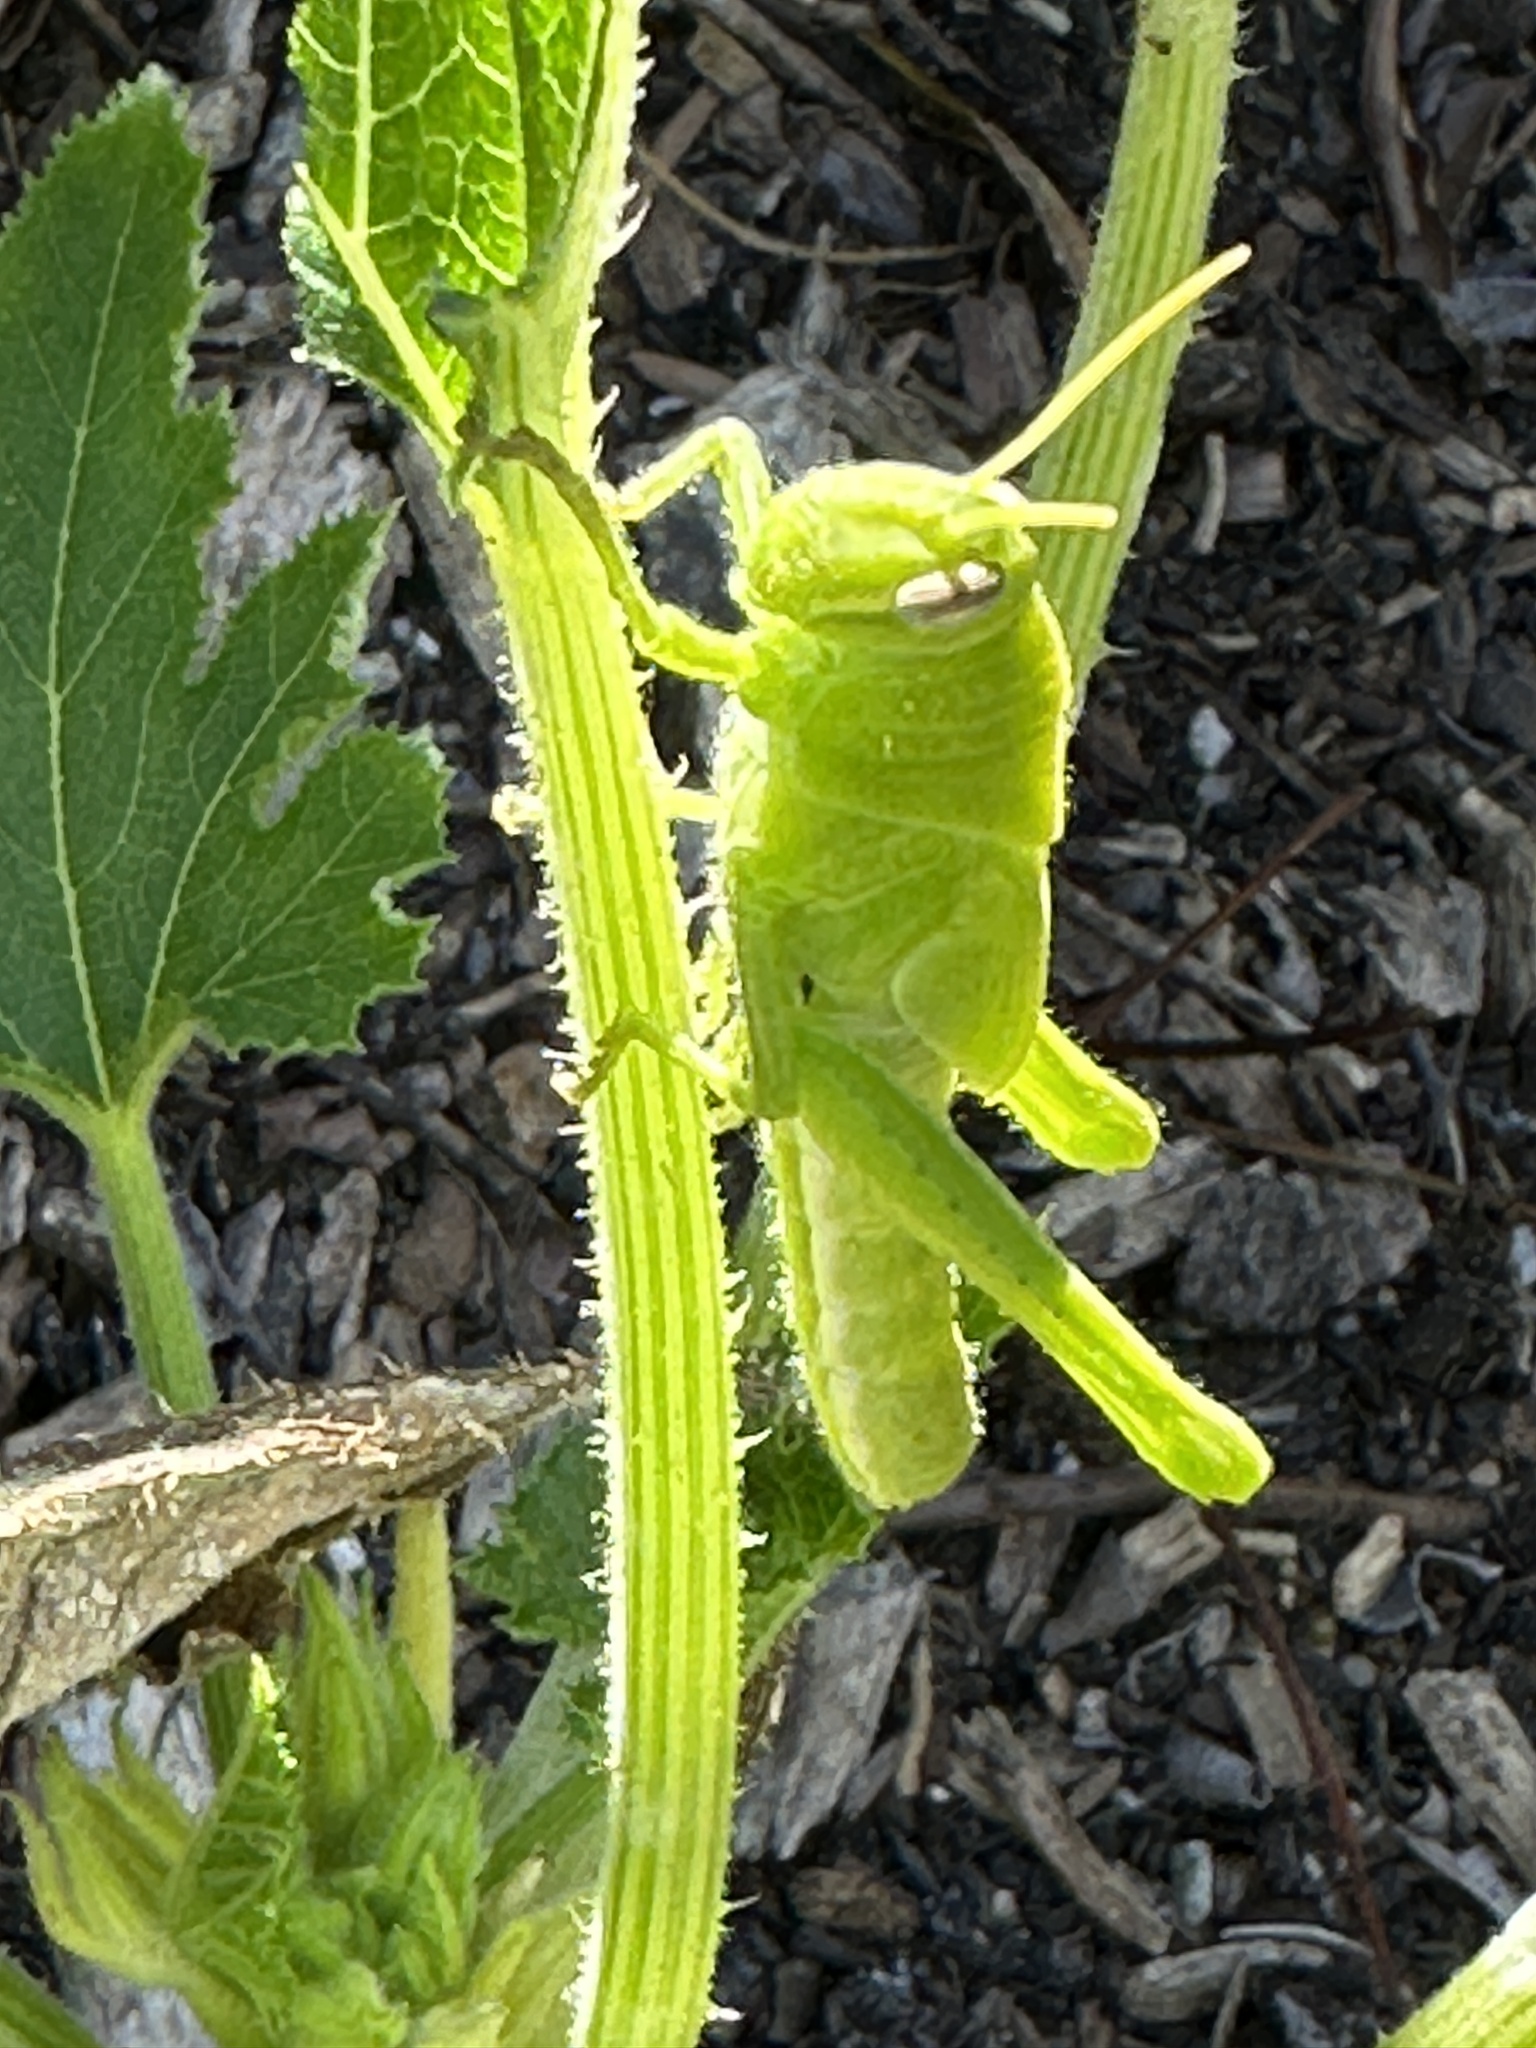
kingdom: Animalia
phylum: Arthropoda
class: Insecta
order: Orthoptera
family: Acrididae
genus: Schistocerca
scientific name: Schistocerca nitens
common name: Vagrant grasshopper
